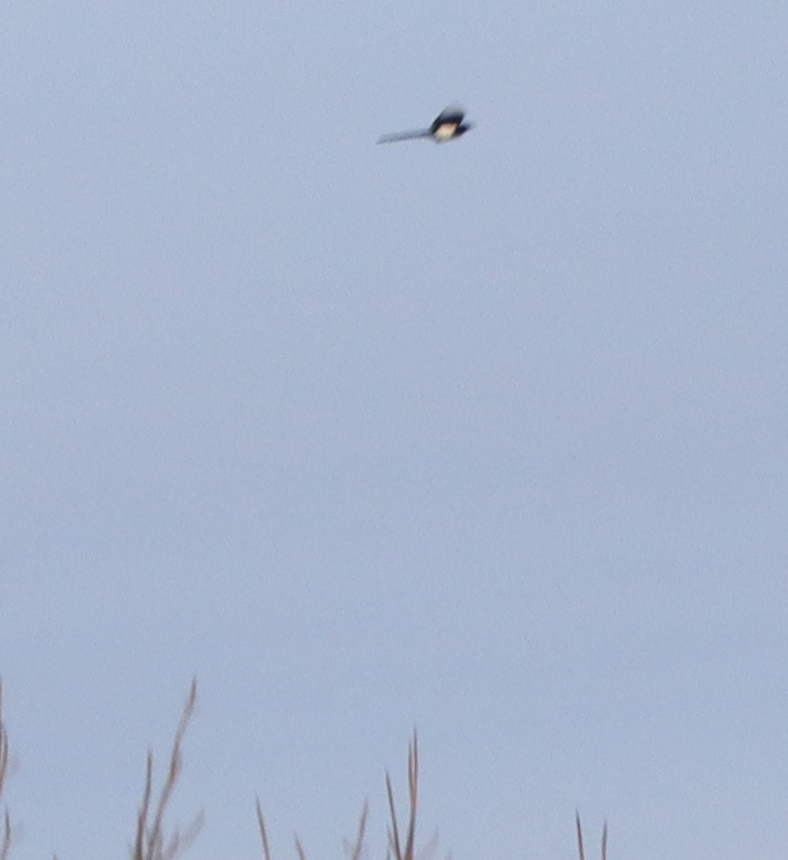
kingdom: Animalia
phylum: Chordata
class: Aves
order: Passeriformes
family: Corvidae
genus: Pica
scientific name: Pica hudsonia
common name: Black-billed magpie
